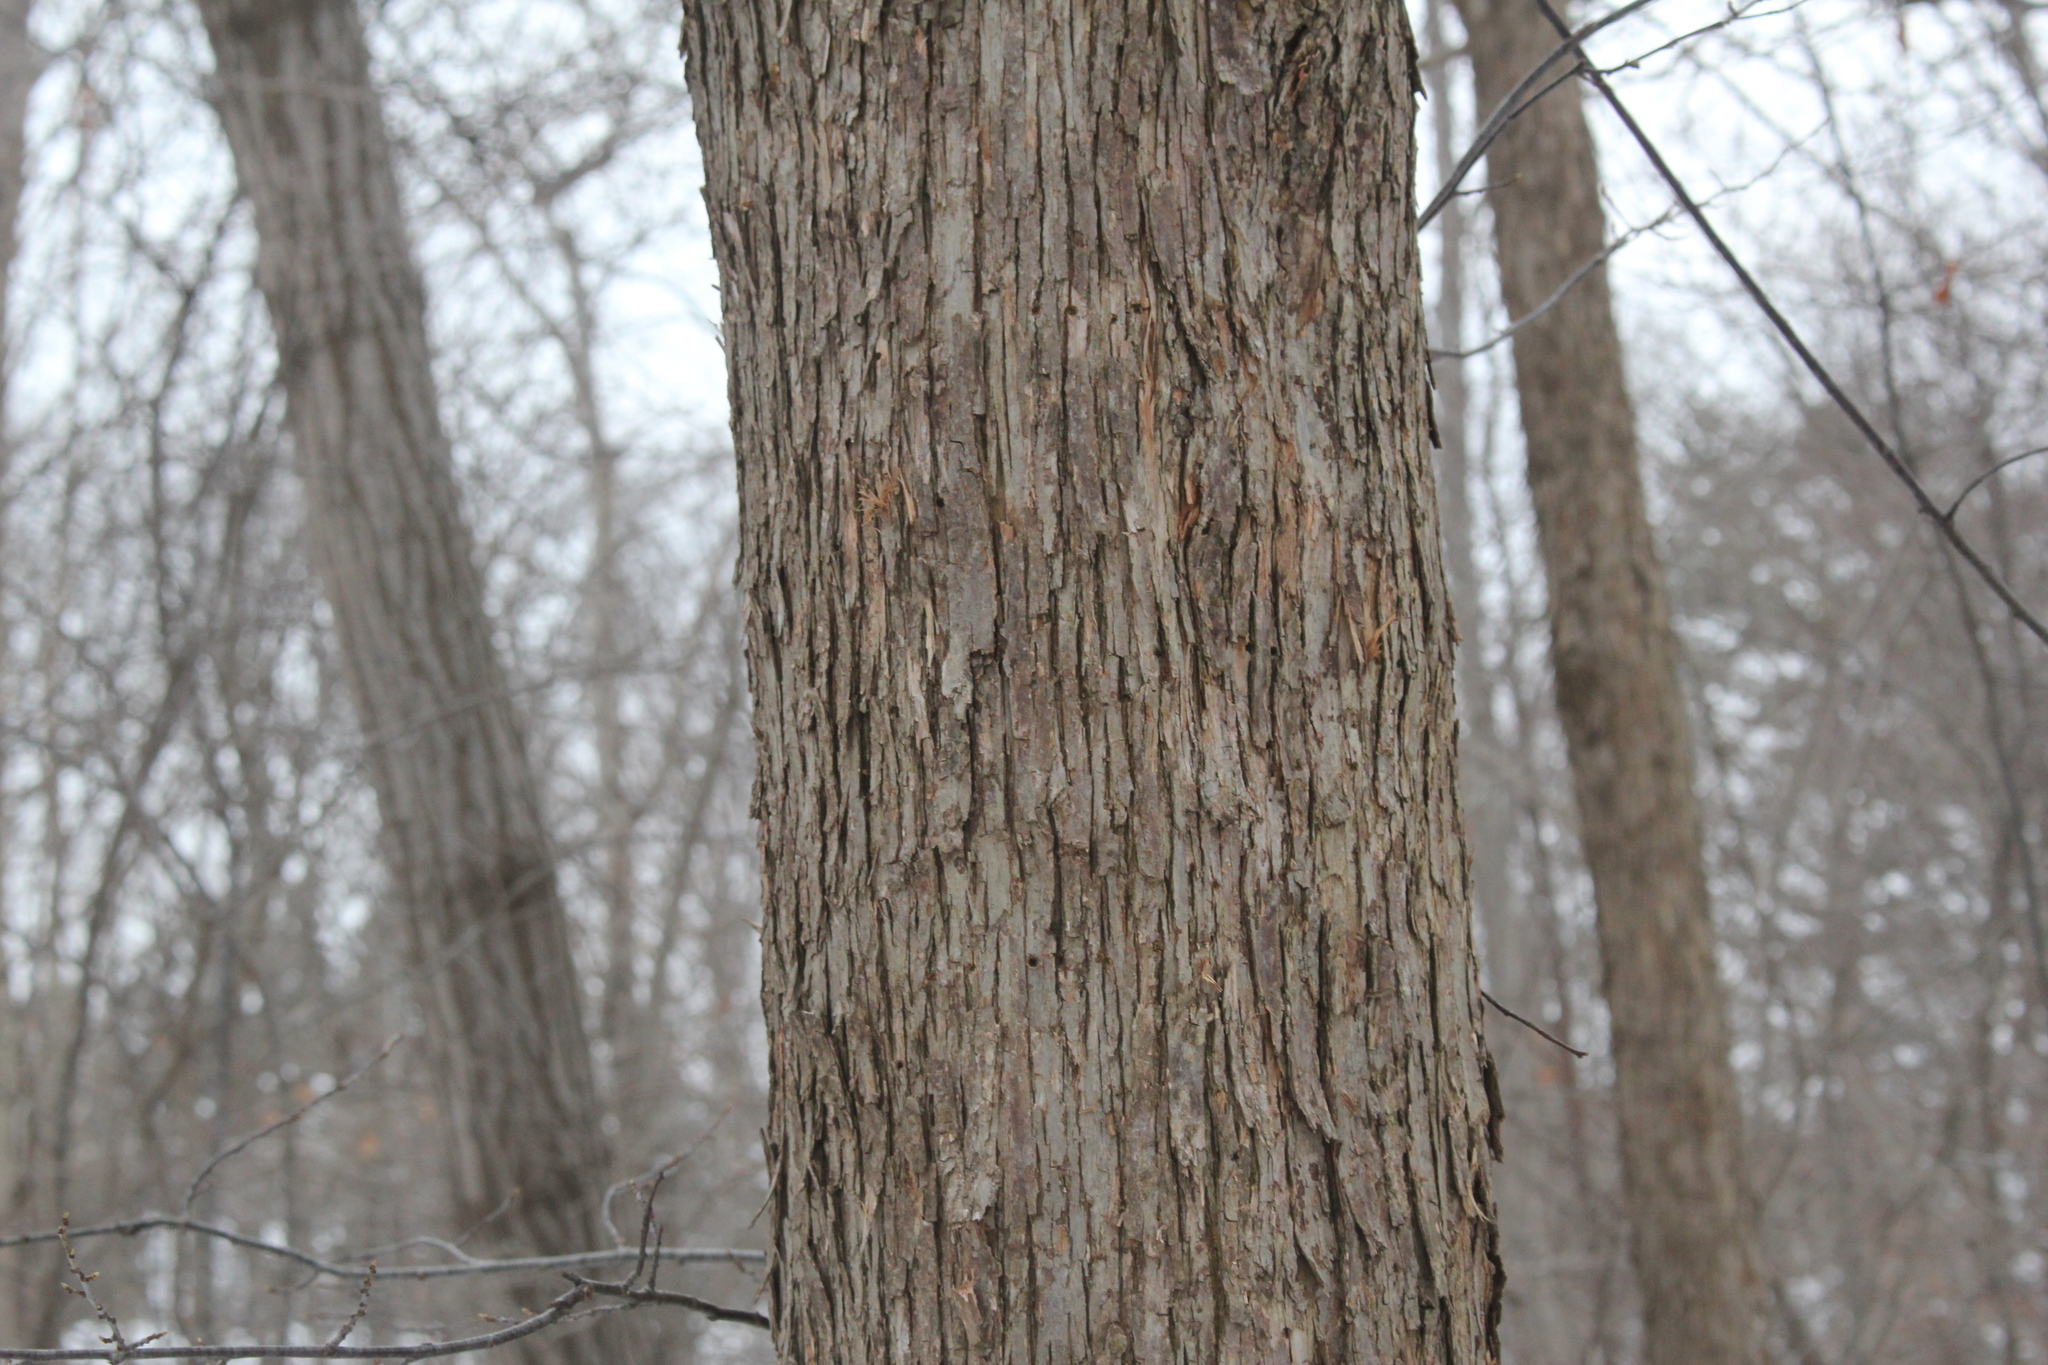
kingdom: Plantae
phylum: Tracheophyta
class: Magnoliopsida
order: Fagales
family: Betulaceae
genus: Ostrya
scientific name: Ostrya virginiana
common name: Ironwood
